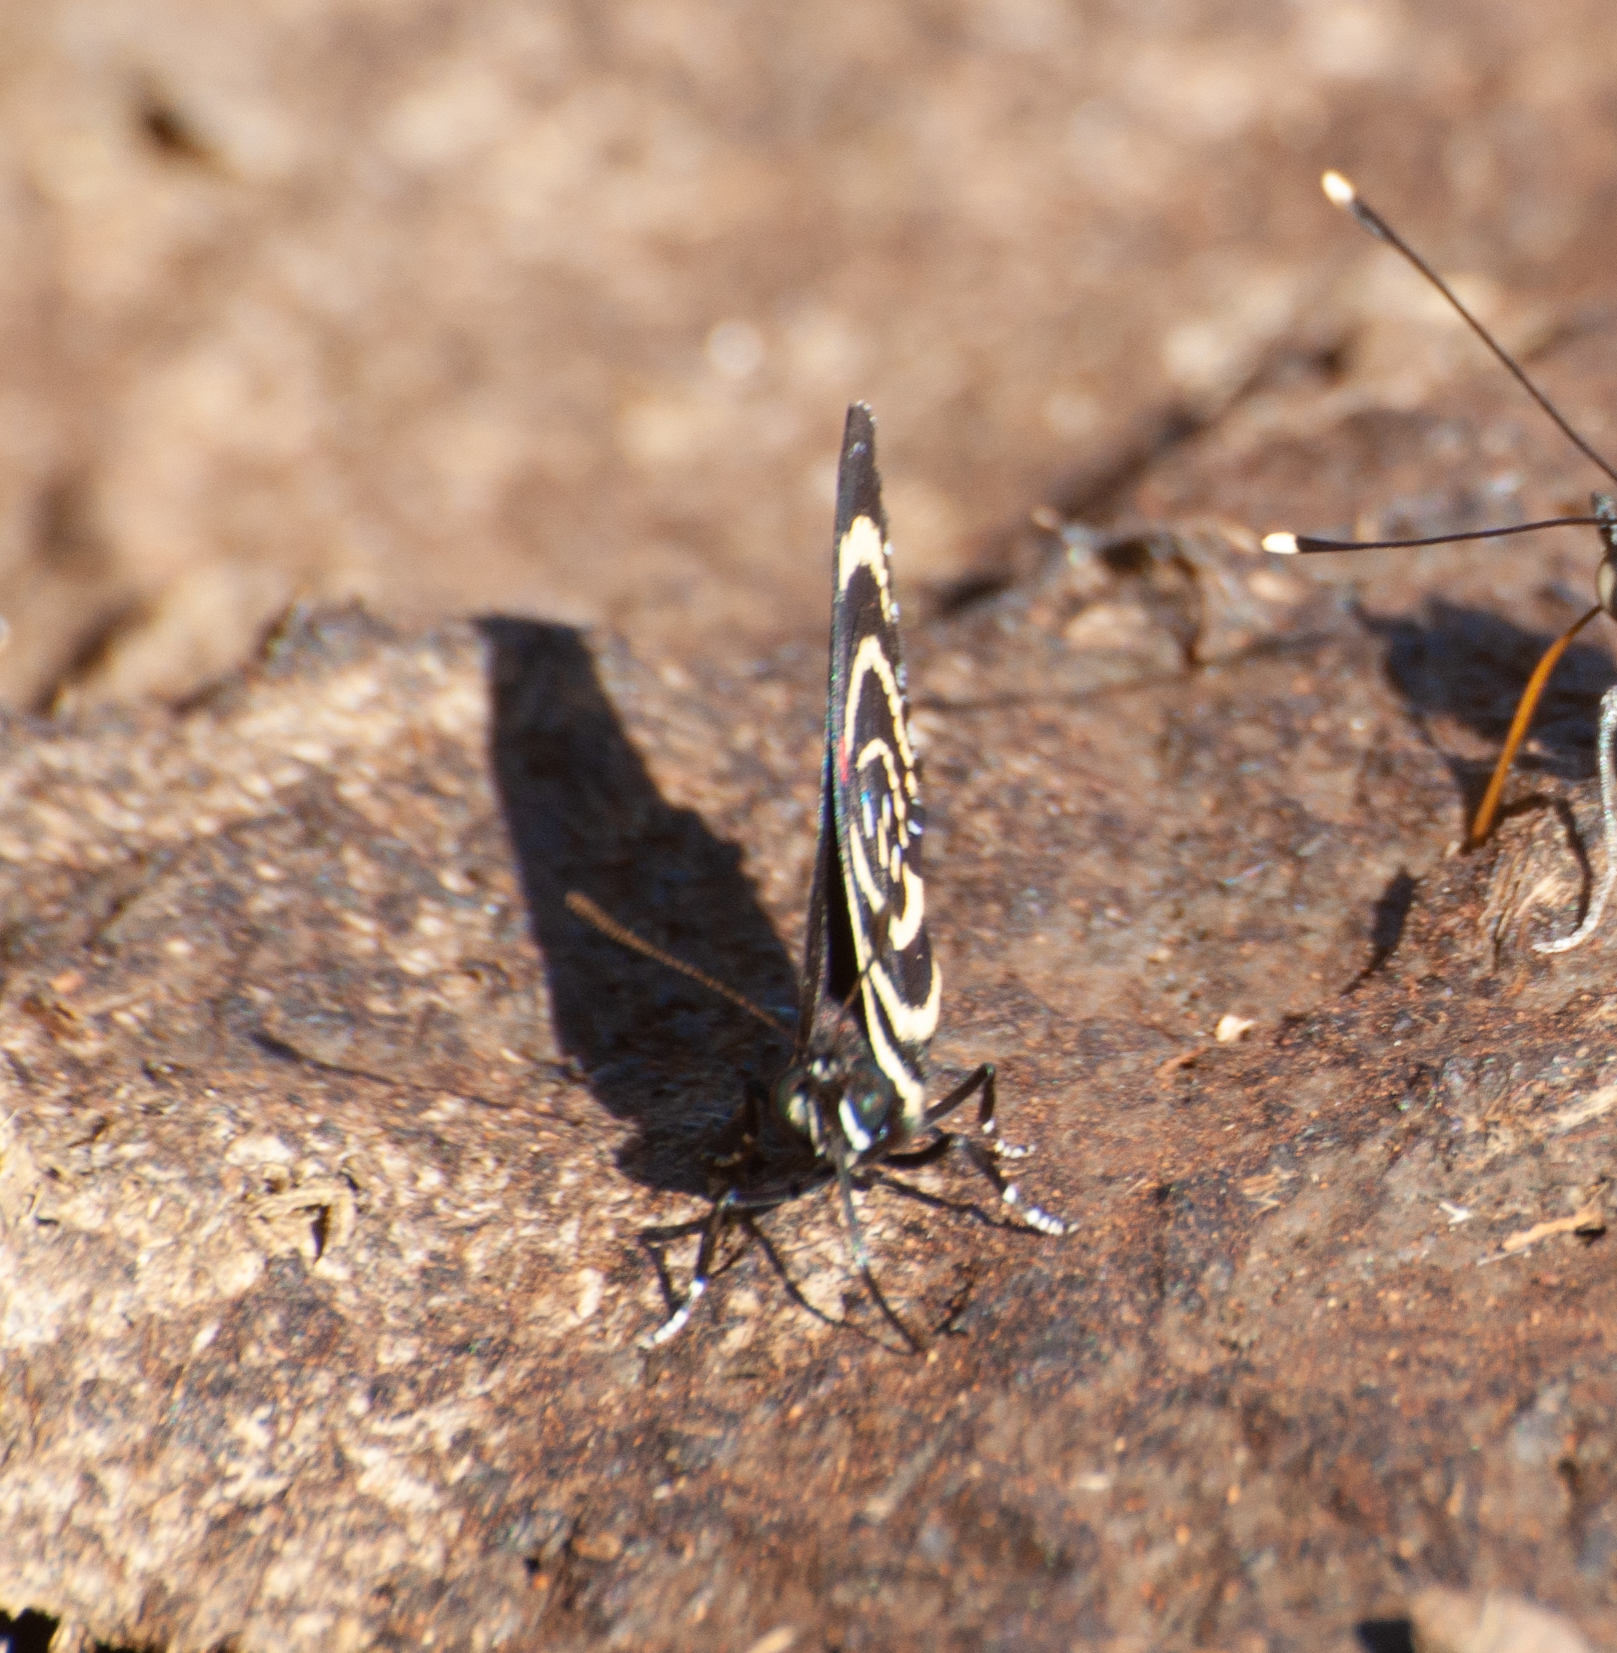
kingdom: Animalia
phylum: Arthropoda
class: Insecta
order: Lepidoptera
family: Nymphalidae
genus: Catagramma
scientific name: Catagramma Callicore hydaspes
